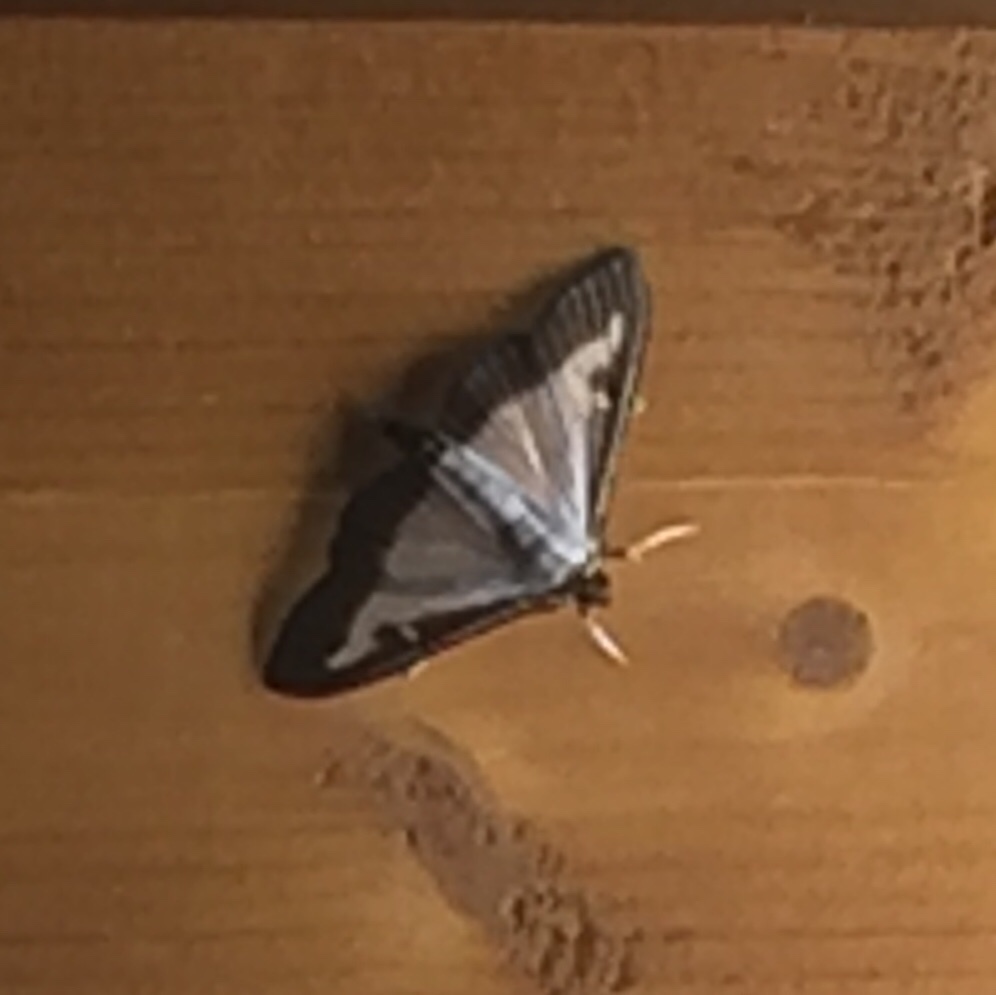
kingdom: Animalia
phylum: Arthropoda
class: Insecta
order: Lepidoptera
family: Crambidae
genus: Cydalima
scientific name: Cydalima perspectalis
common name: Box tree moth
